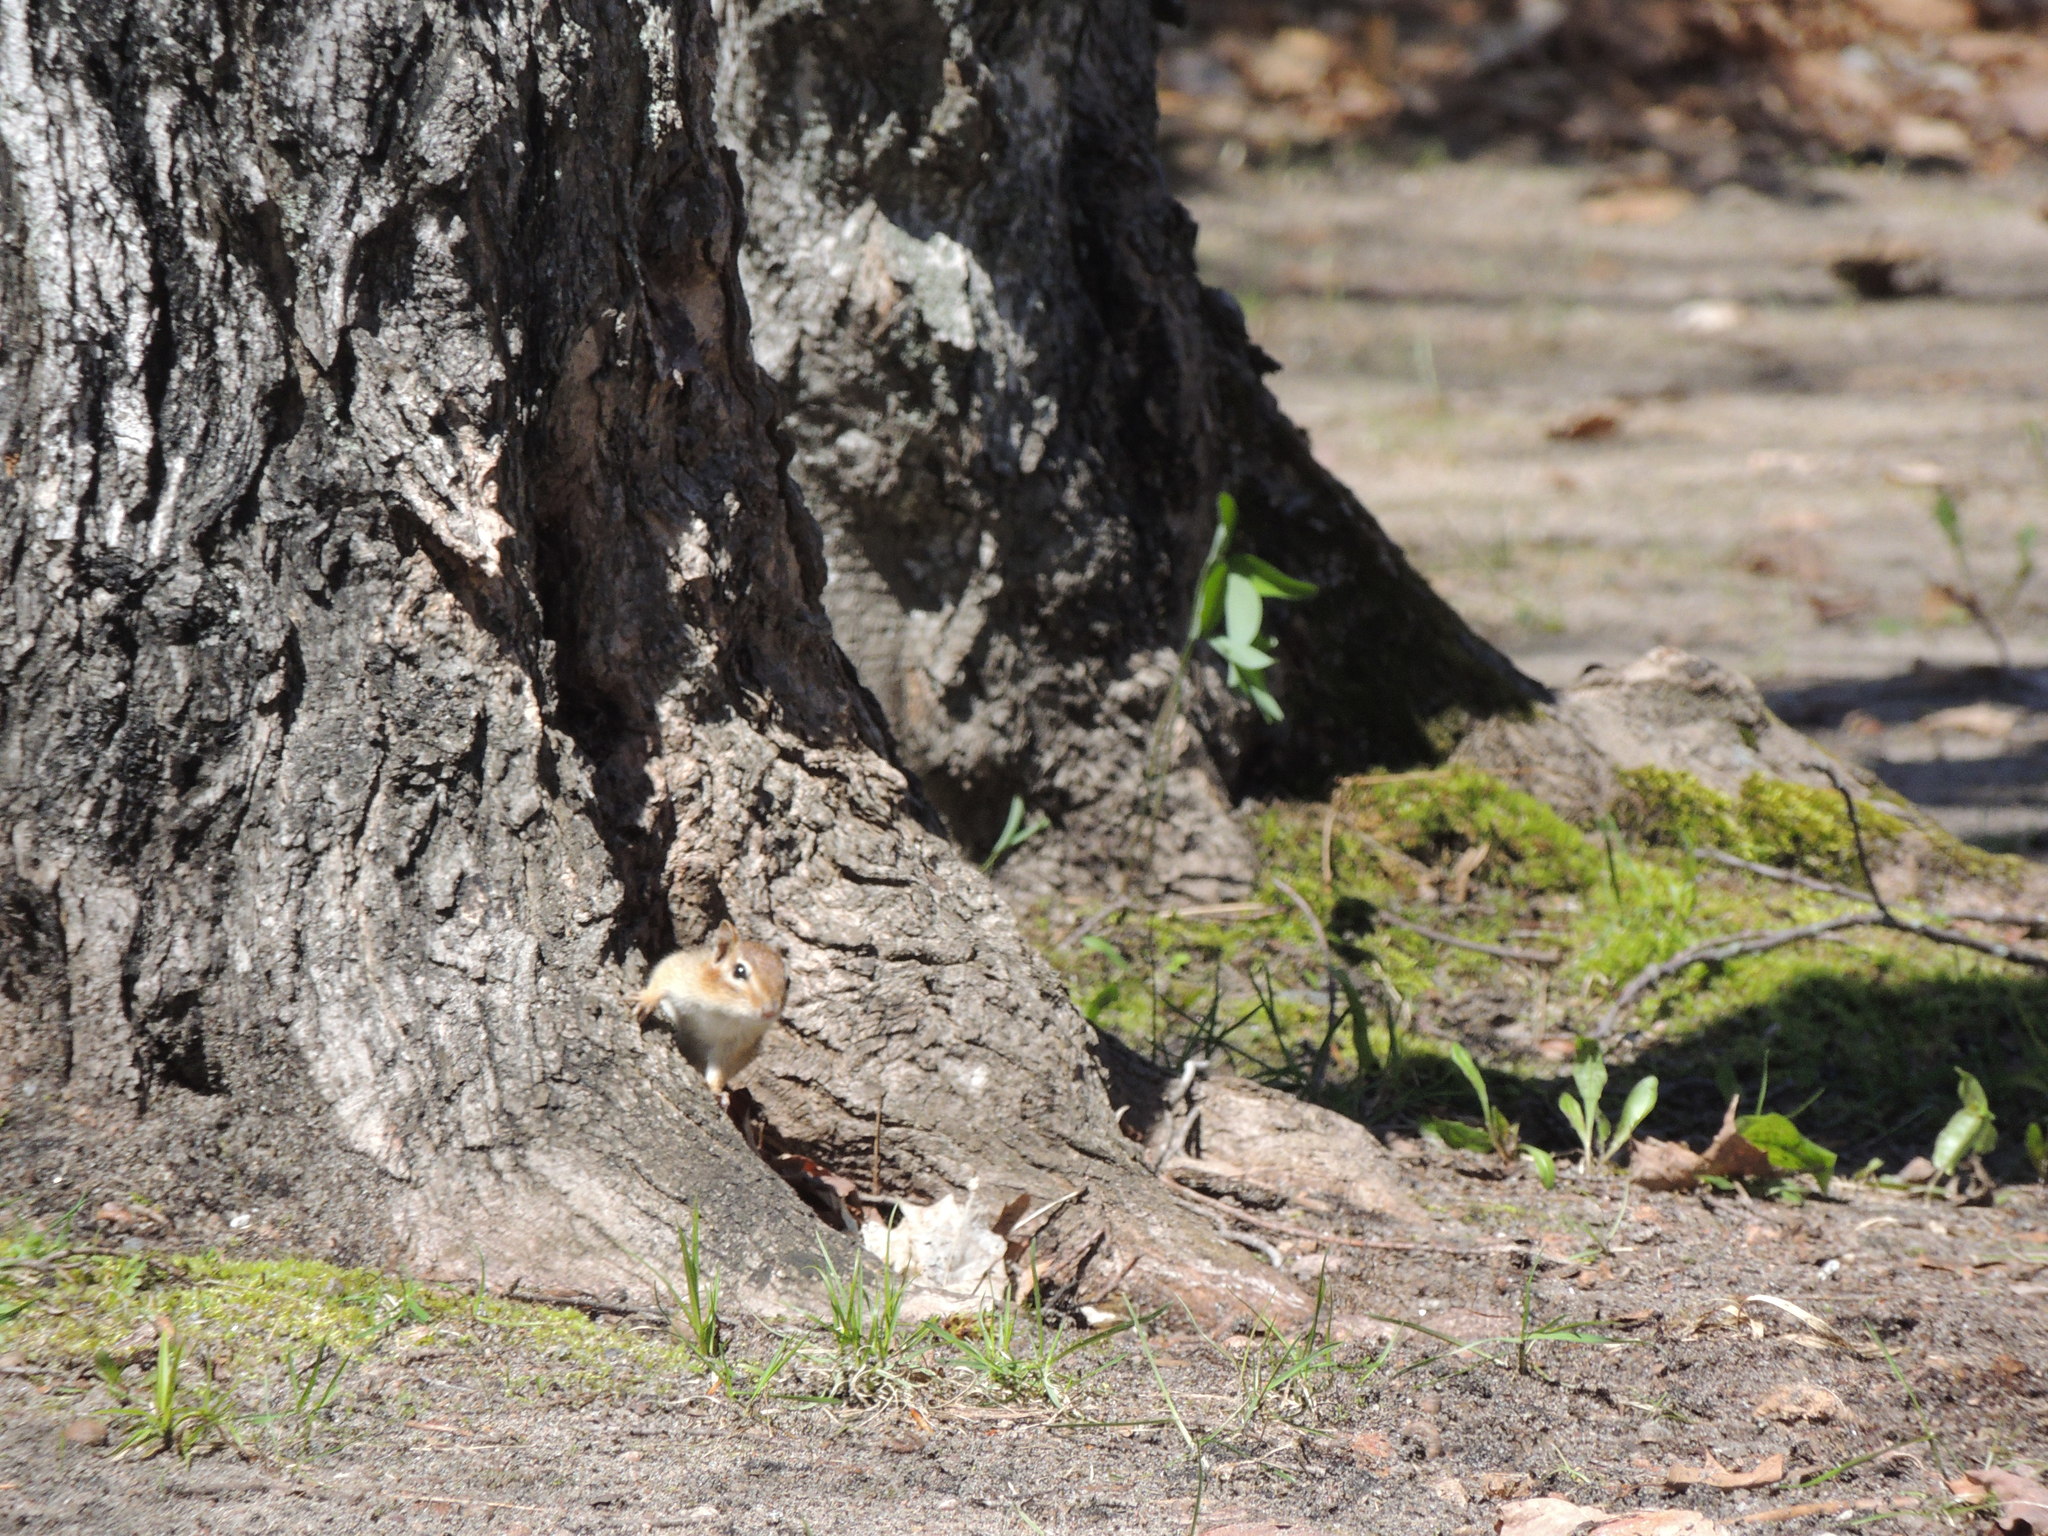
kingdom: Animalia
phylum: Chordata
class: Mammalia
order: Rodentia
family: Sciuridae
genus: Tamias
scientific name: Tamias striatus
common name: Eastern chipmunk
